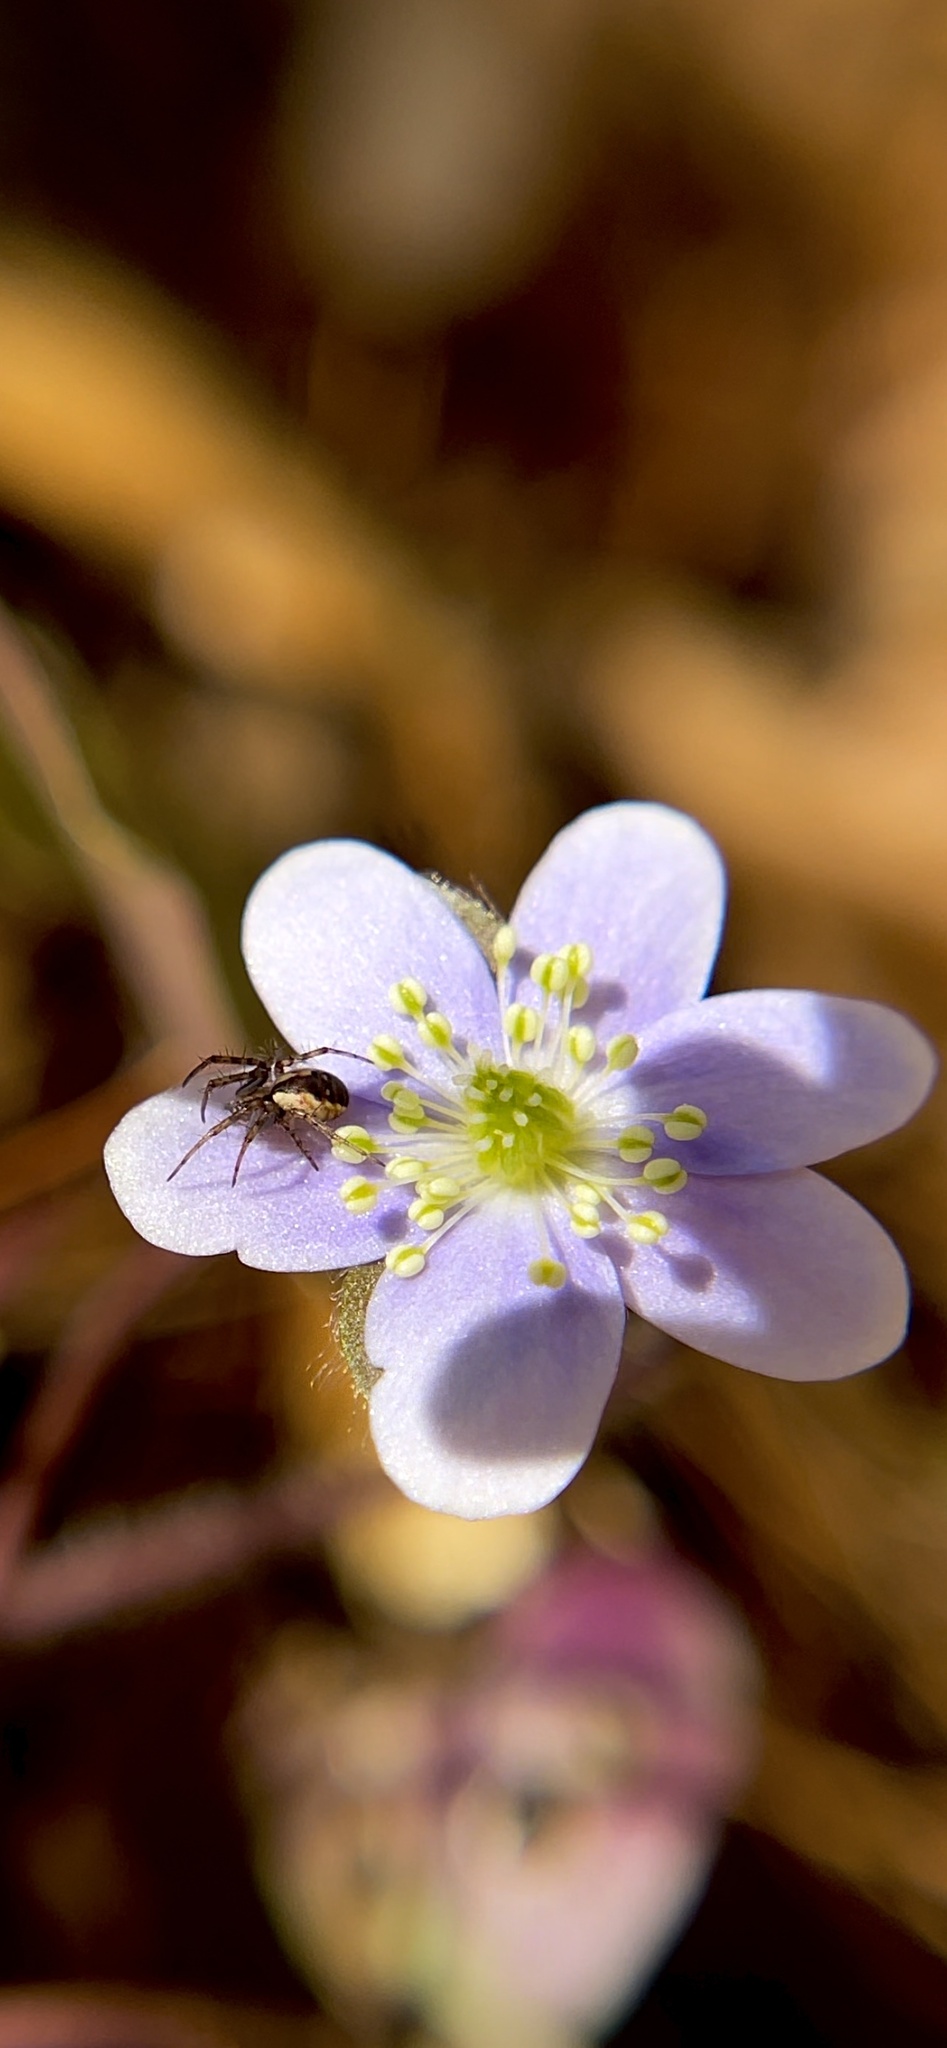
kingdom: Animalia
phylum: Arthropoda
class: Arachnida
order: Araneae
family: Araneidae
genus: Mangora
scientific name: Mangora placida
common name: Tuft-legged orbweaver
